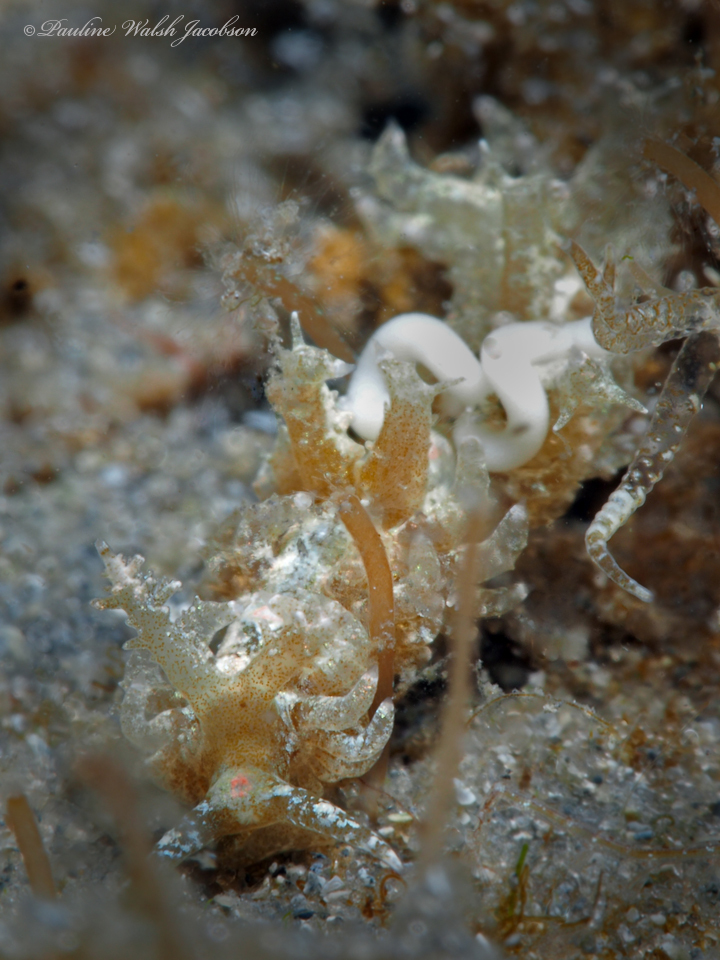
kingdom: Animalia
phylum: Mollusca
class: Gastropoda
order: Nudibranchia
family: Aeolidiidae
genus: Limenandra
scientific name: Limenandra nodosa
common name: Warty baeolidia
